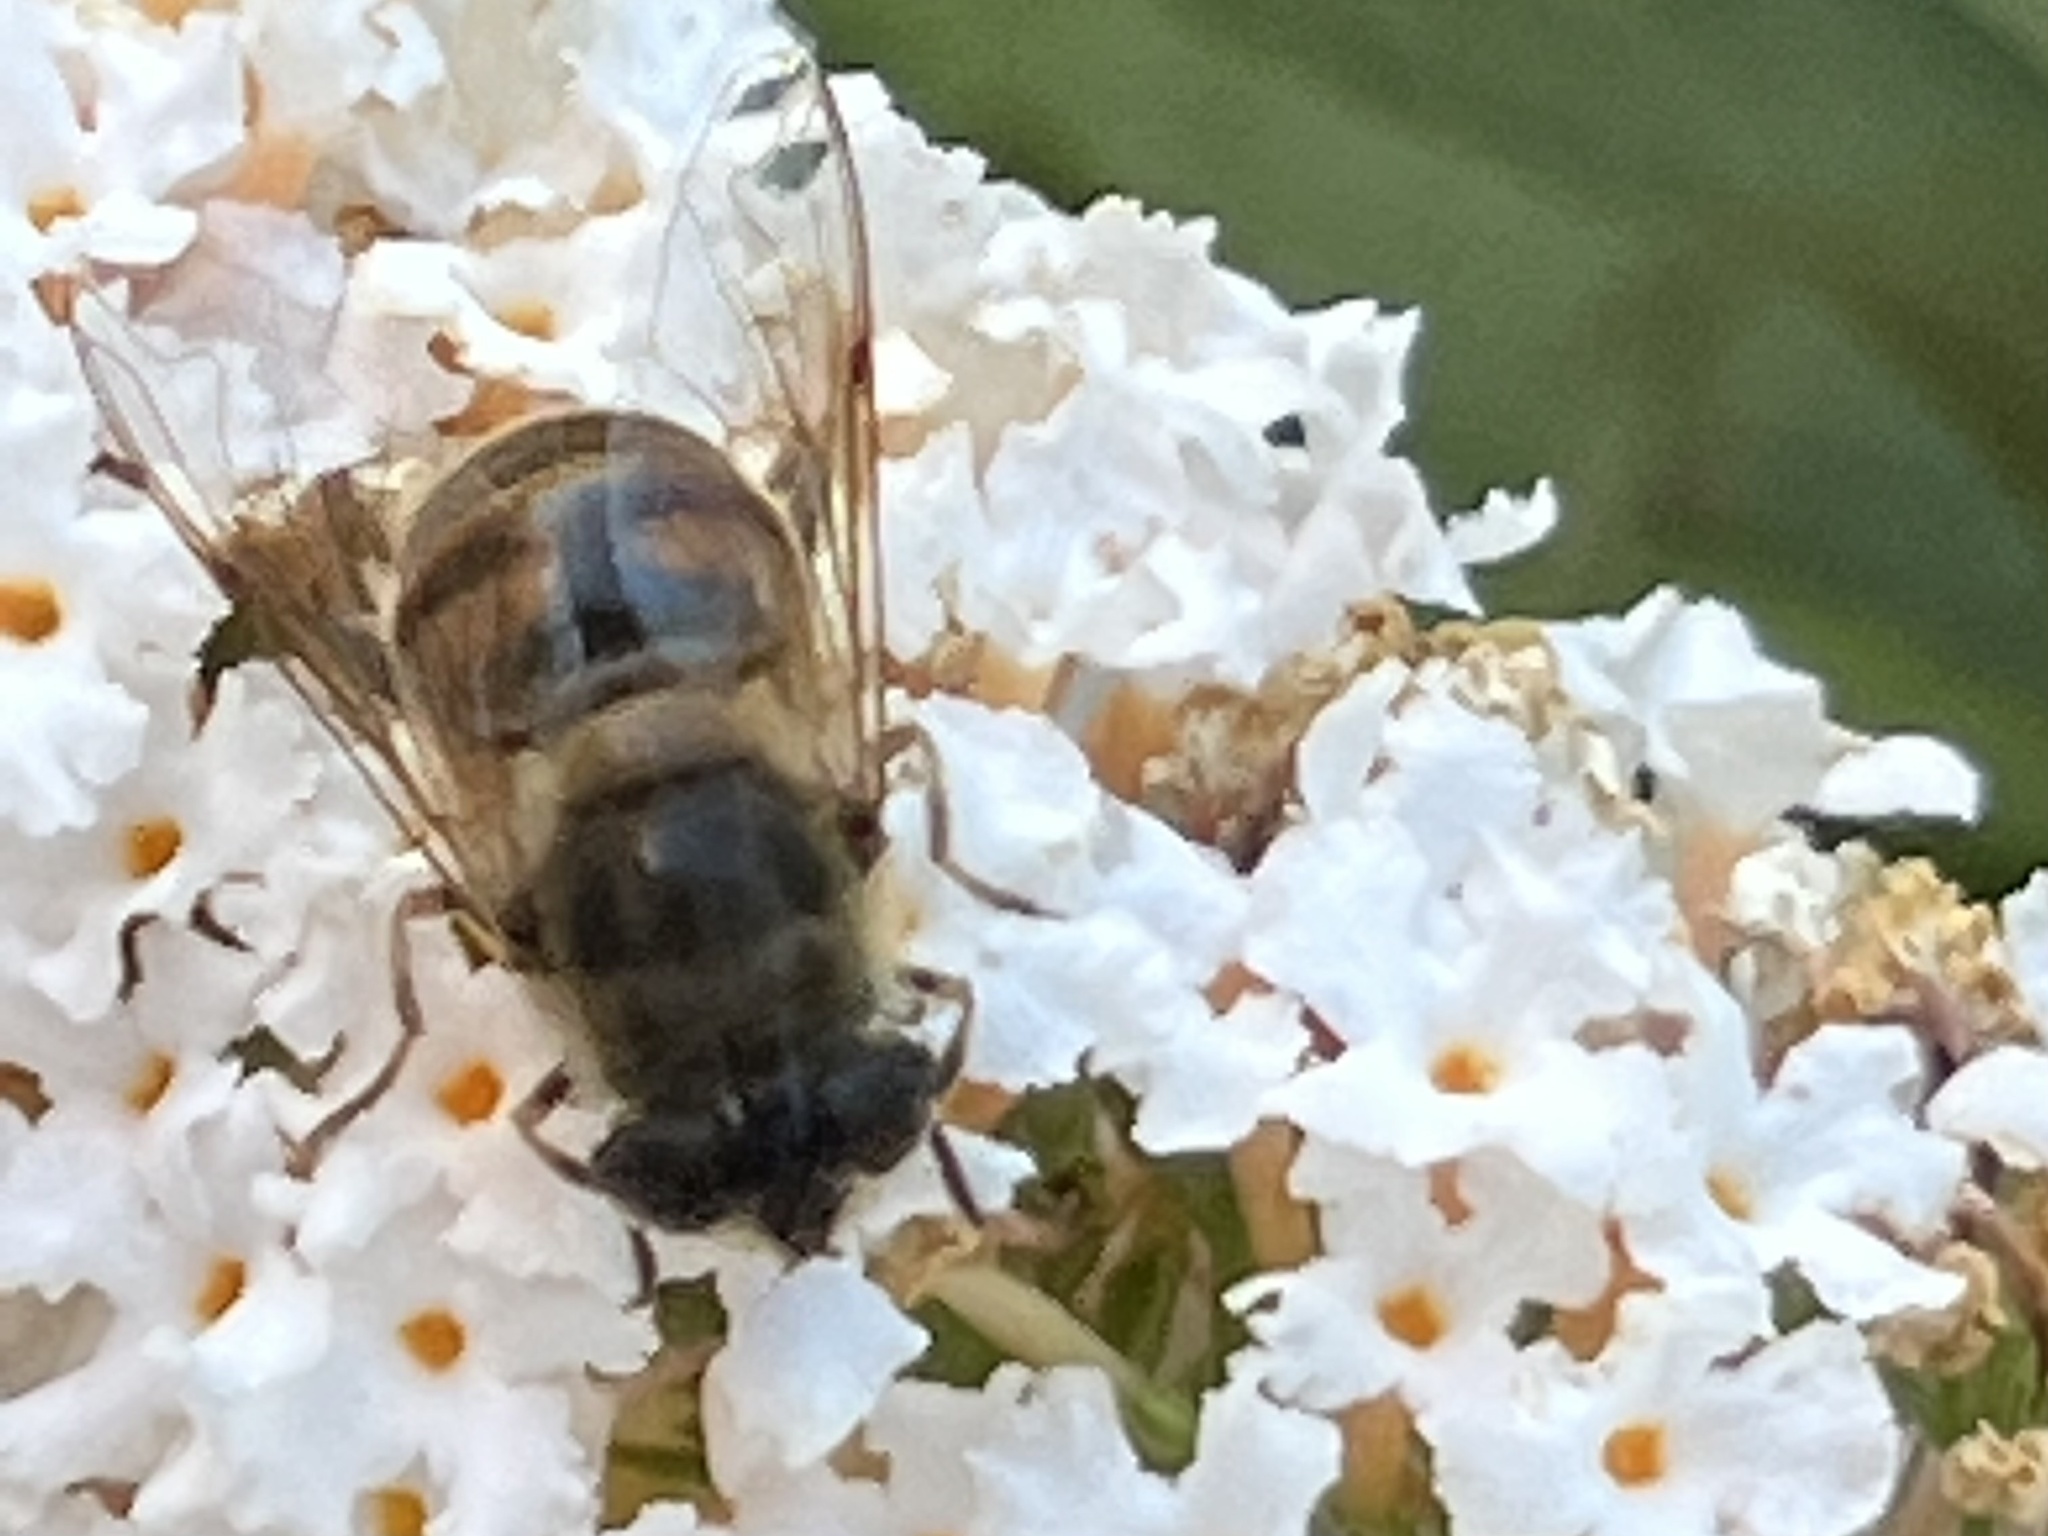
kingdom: Animalia
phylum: Arthropoda
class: Insecta
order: Diptera
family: Syrphidae
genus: Eristalis
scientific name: Eristalis tenax
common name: Drone fly
